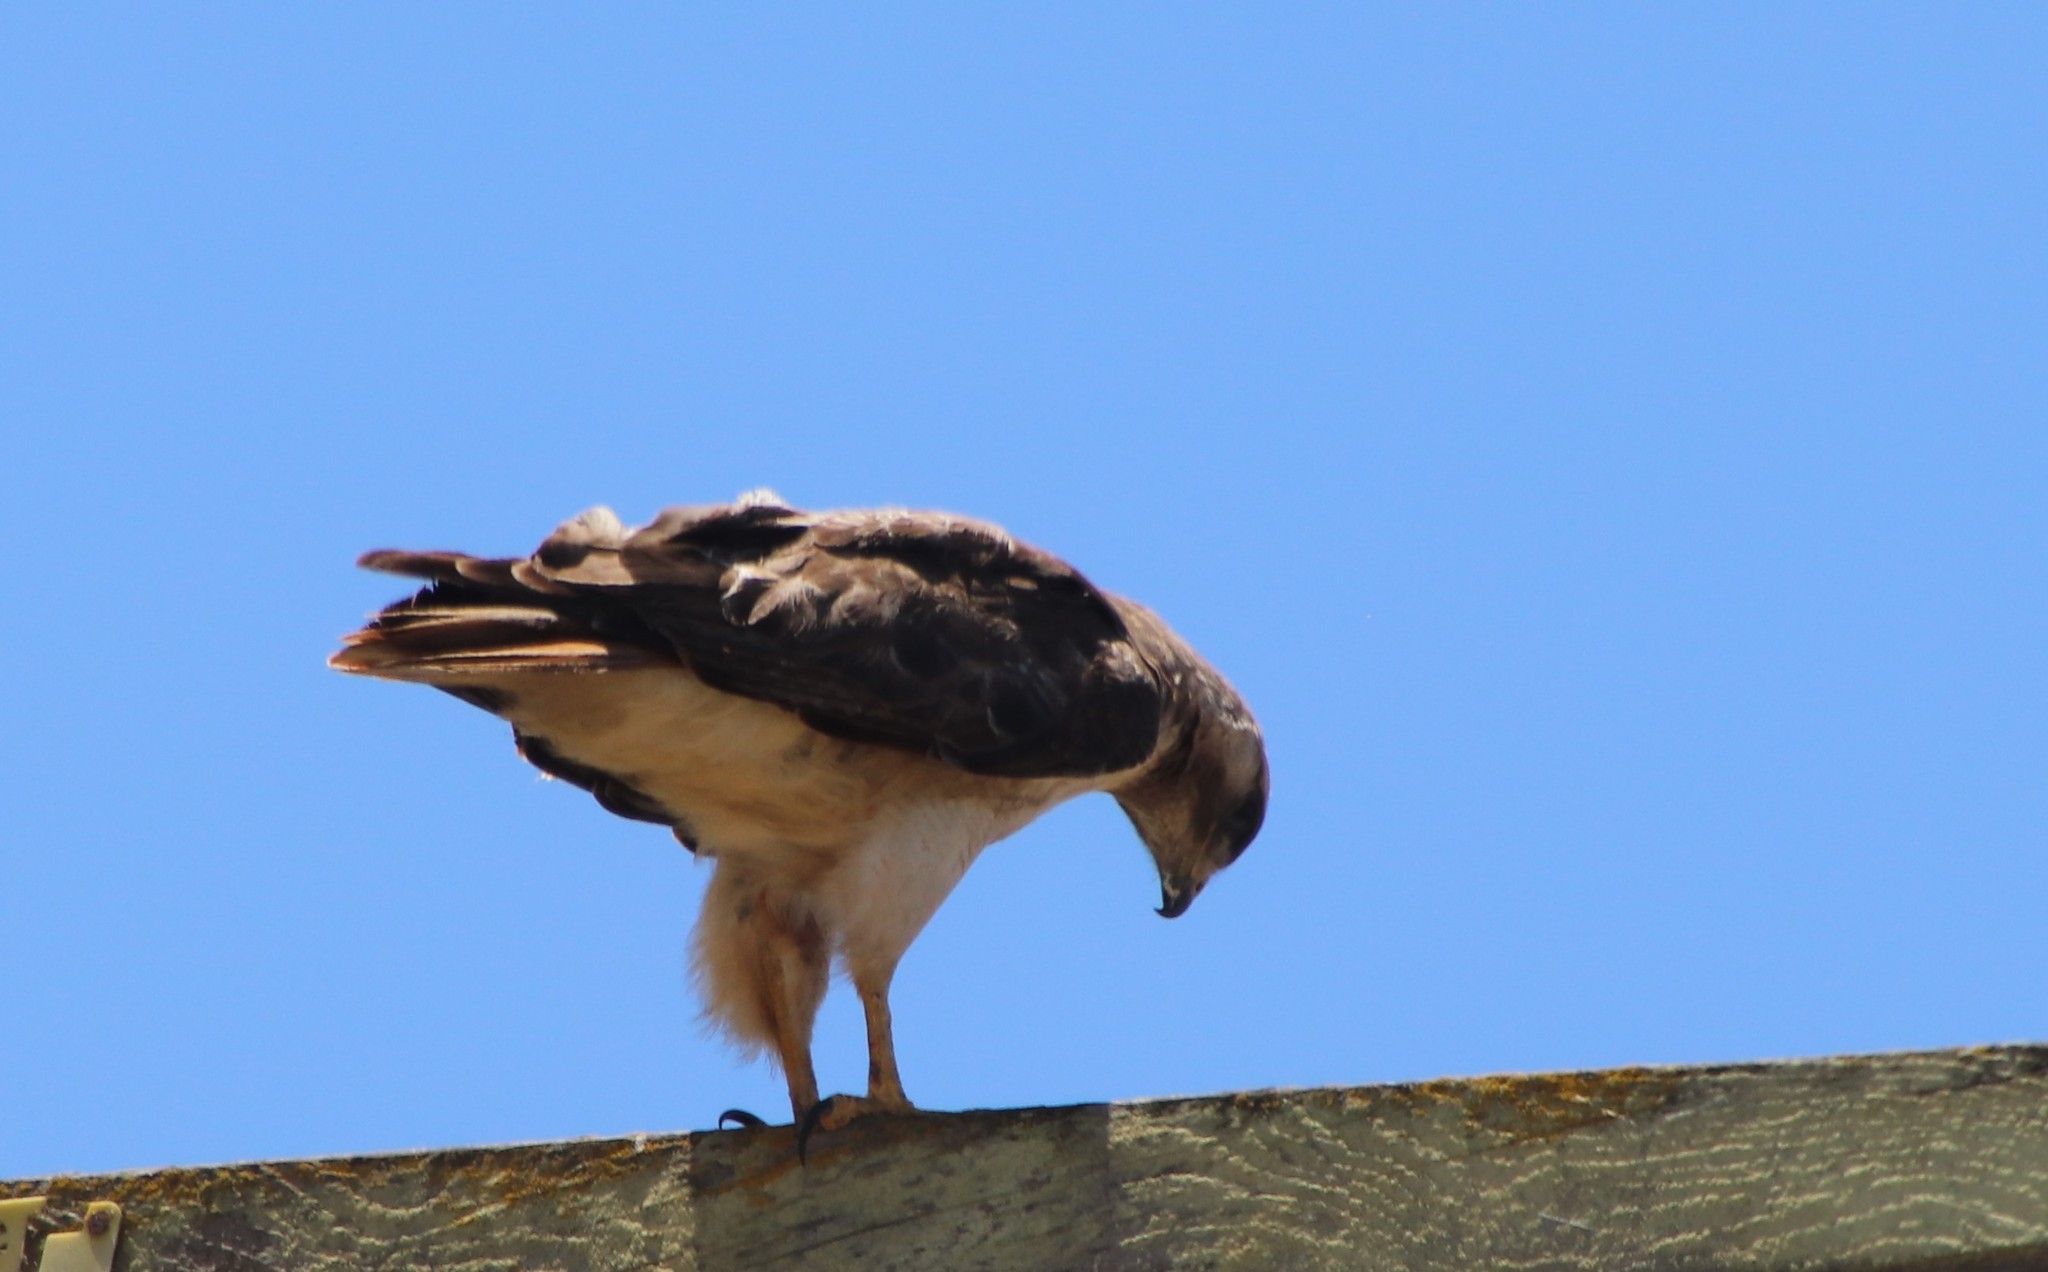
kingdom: Animalia
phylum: Chordata
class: Aves
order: Accipitriformes
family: Accipitridae
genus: Buteo
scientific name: Buteo jamaicensis
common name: Red-tailed hawk
